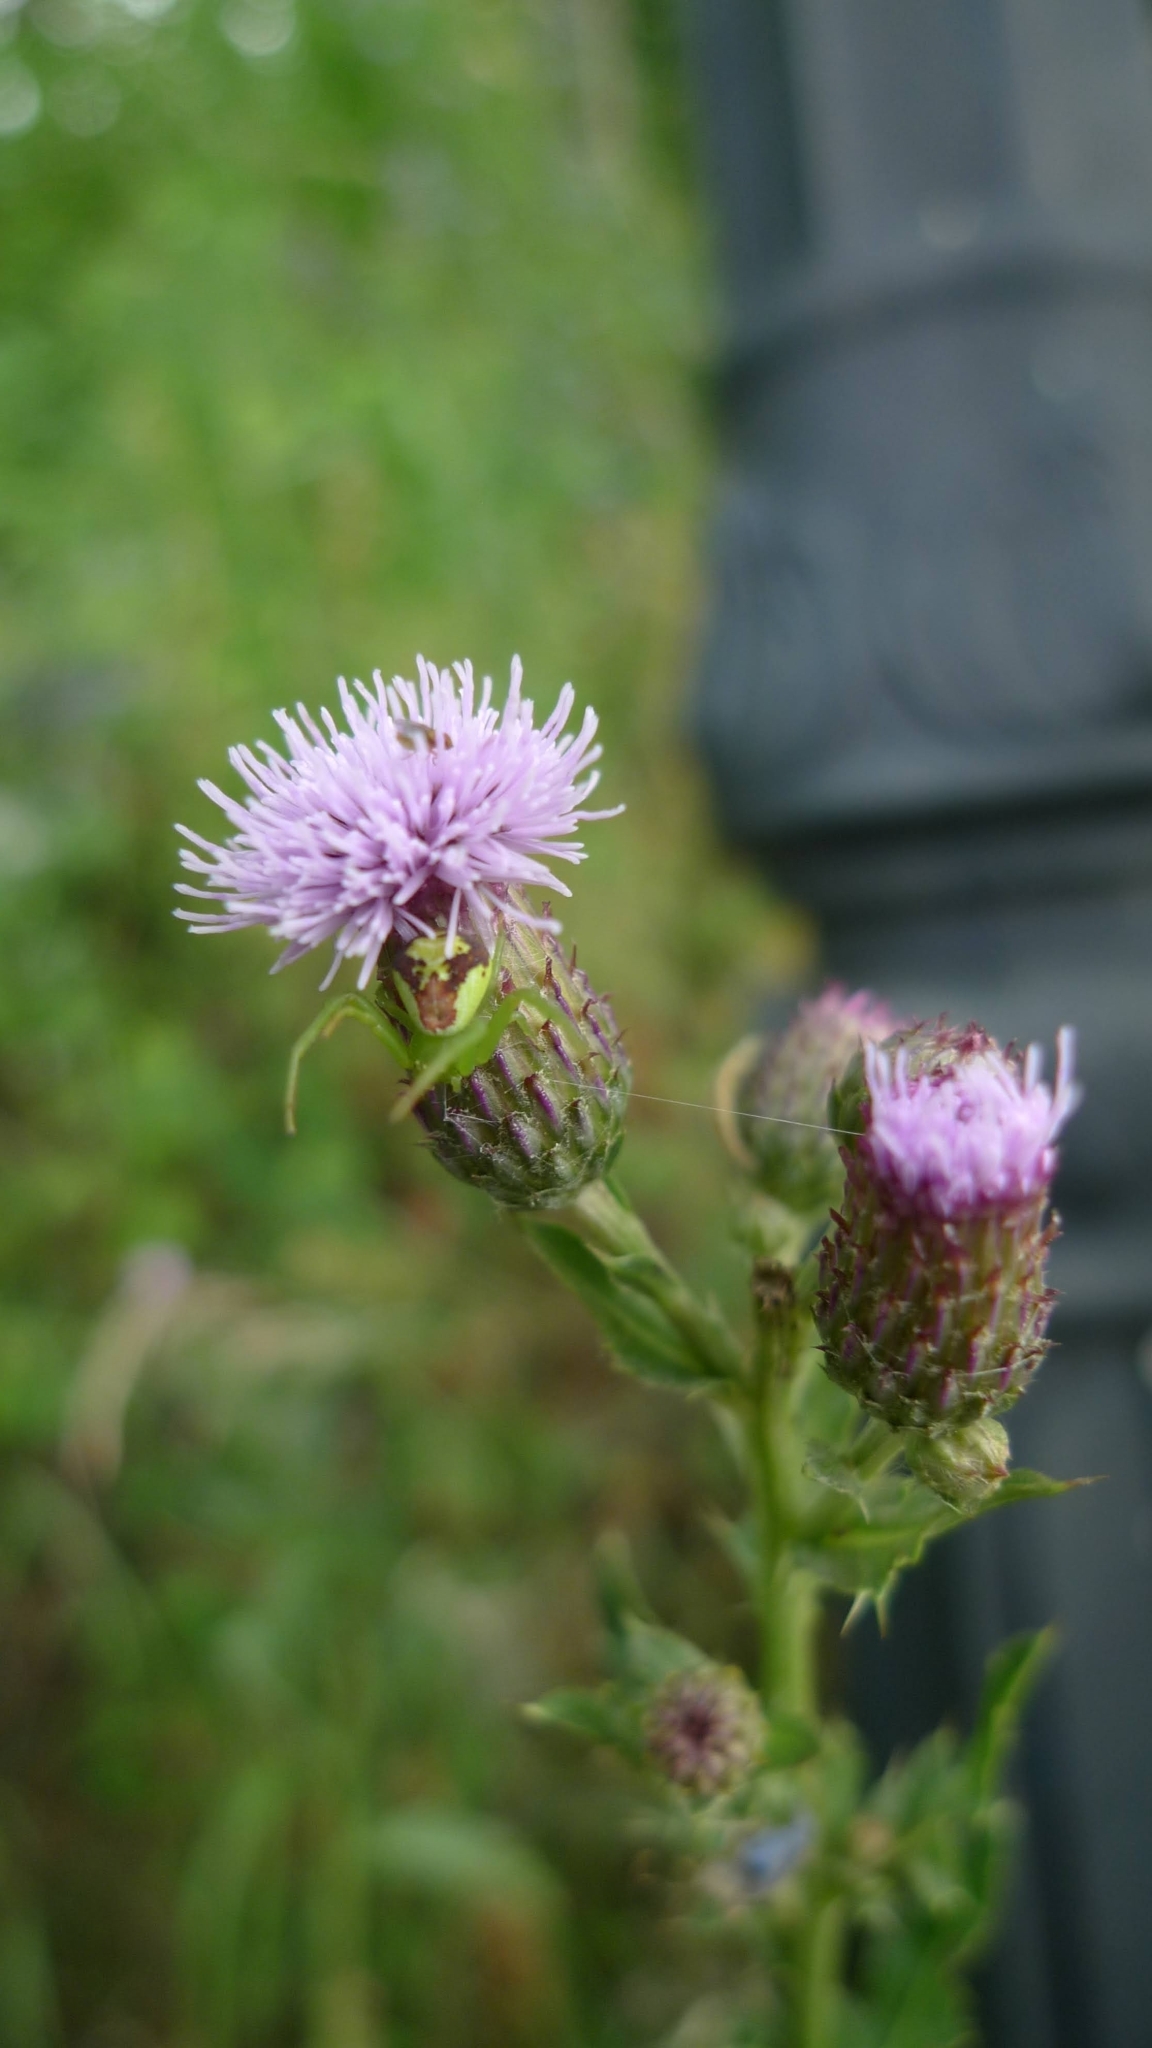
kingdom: Plantae
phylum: Tracheophyta
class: Magnoliopsida
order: Asterales
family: Asteraceae
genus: Cirsium
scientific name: Cirsium arvense
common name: Creeping thistle
